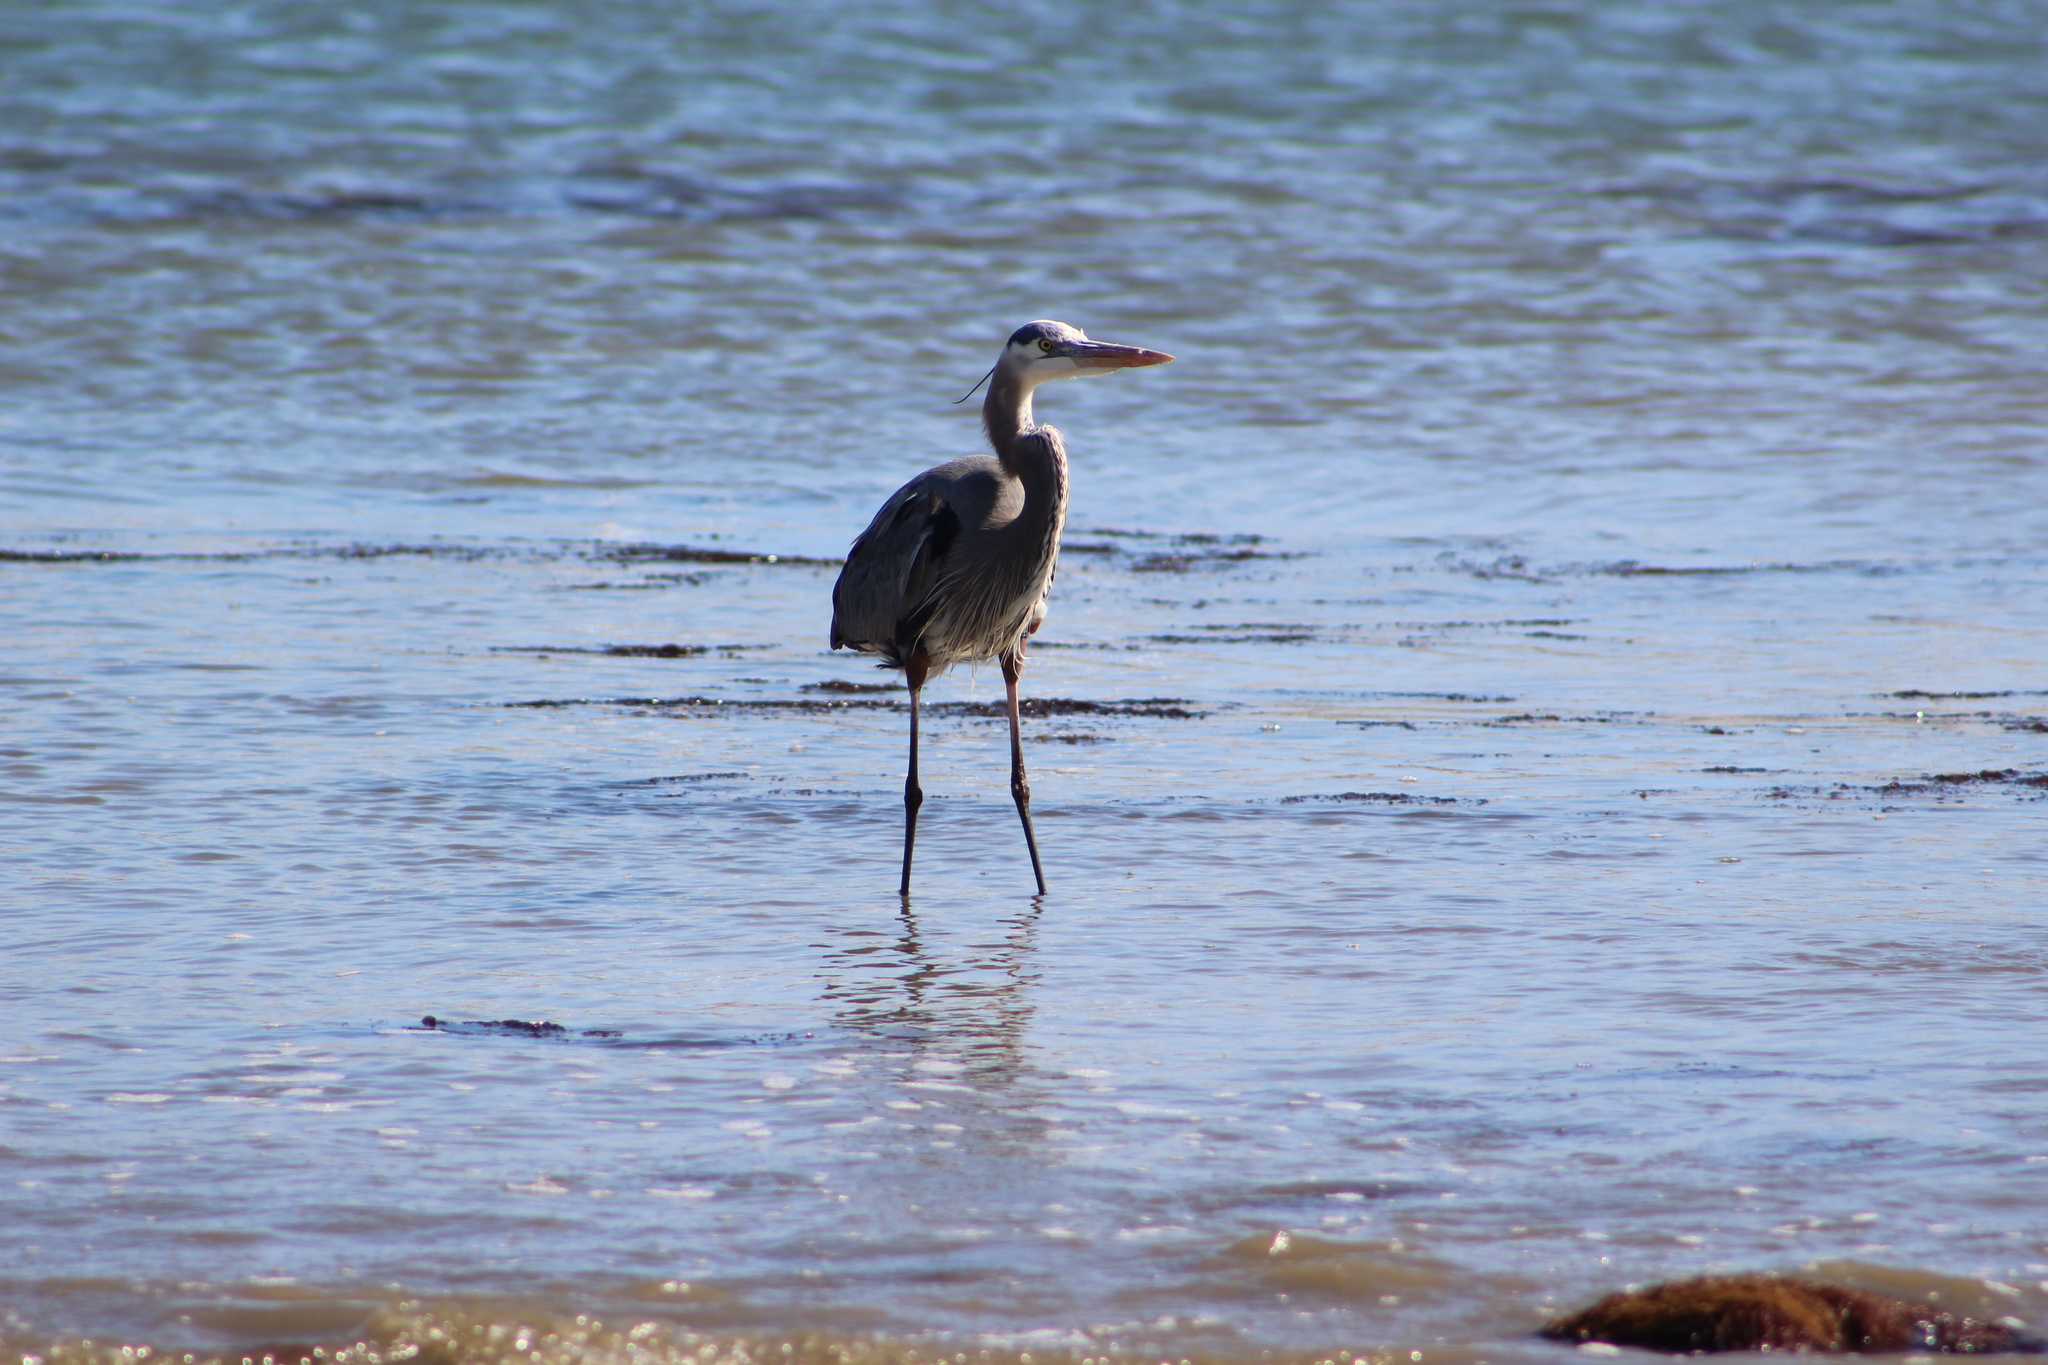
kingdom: Animalia
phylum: Chordata
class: Aves
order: Pelecaniformes
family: Ardeidae
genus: Ardea
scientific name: Ardea herodias
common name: Great blue heron
